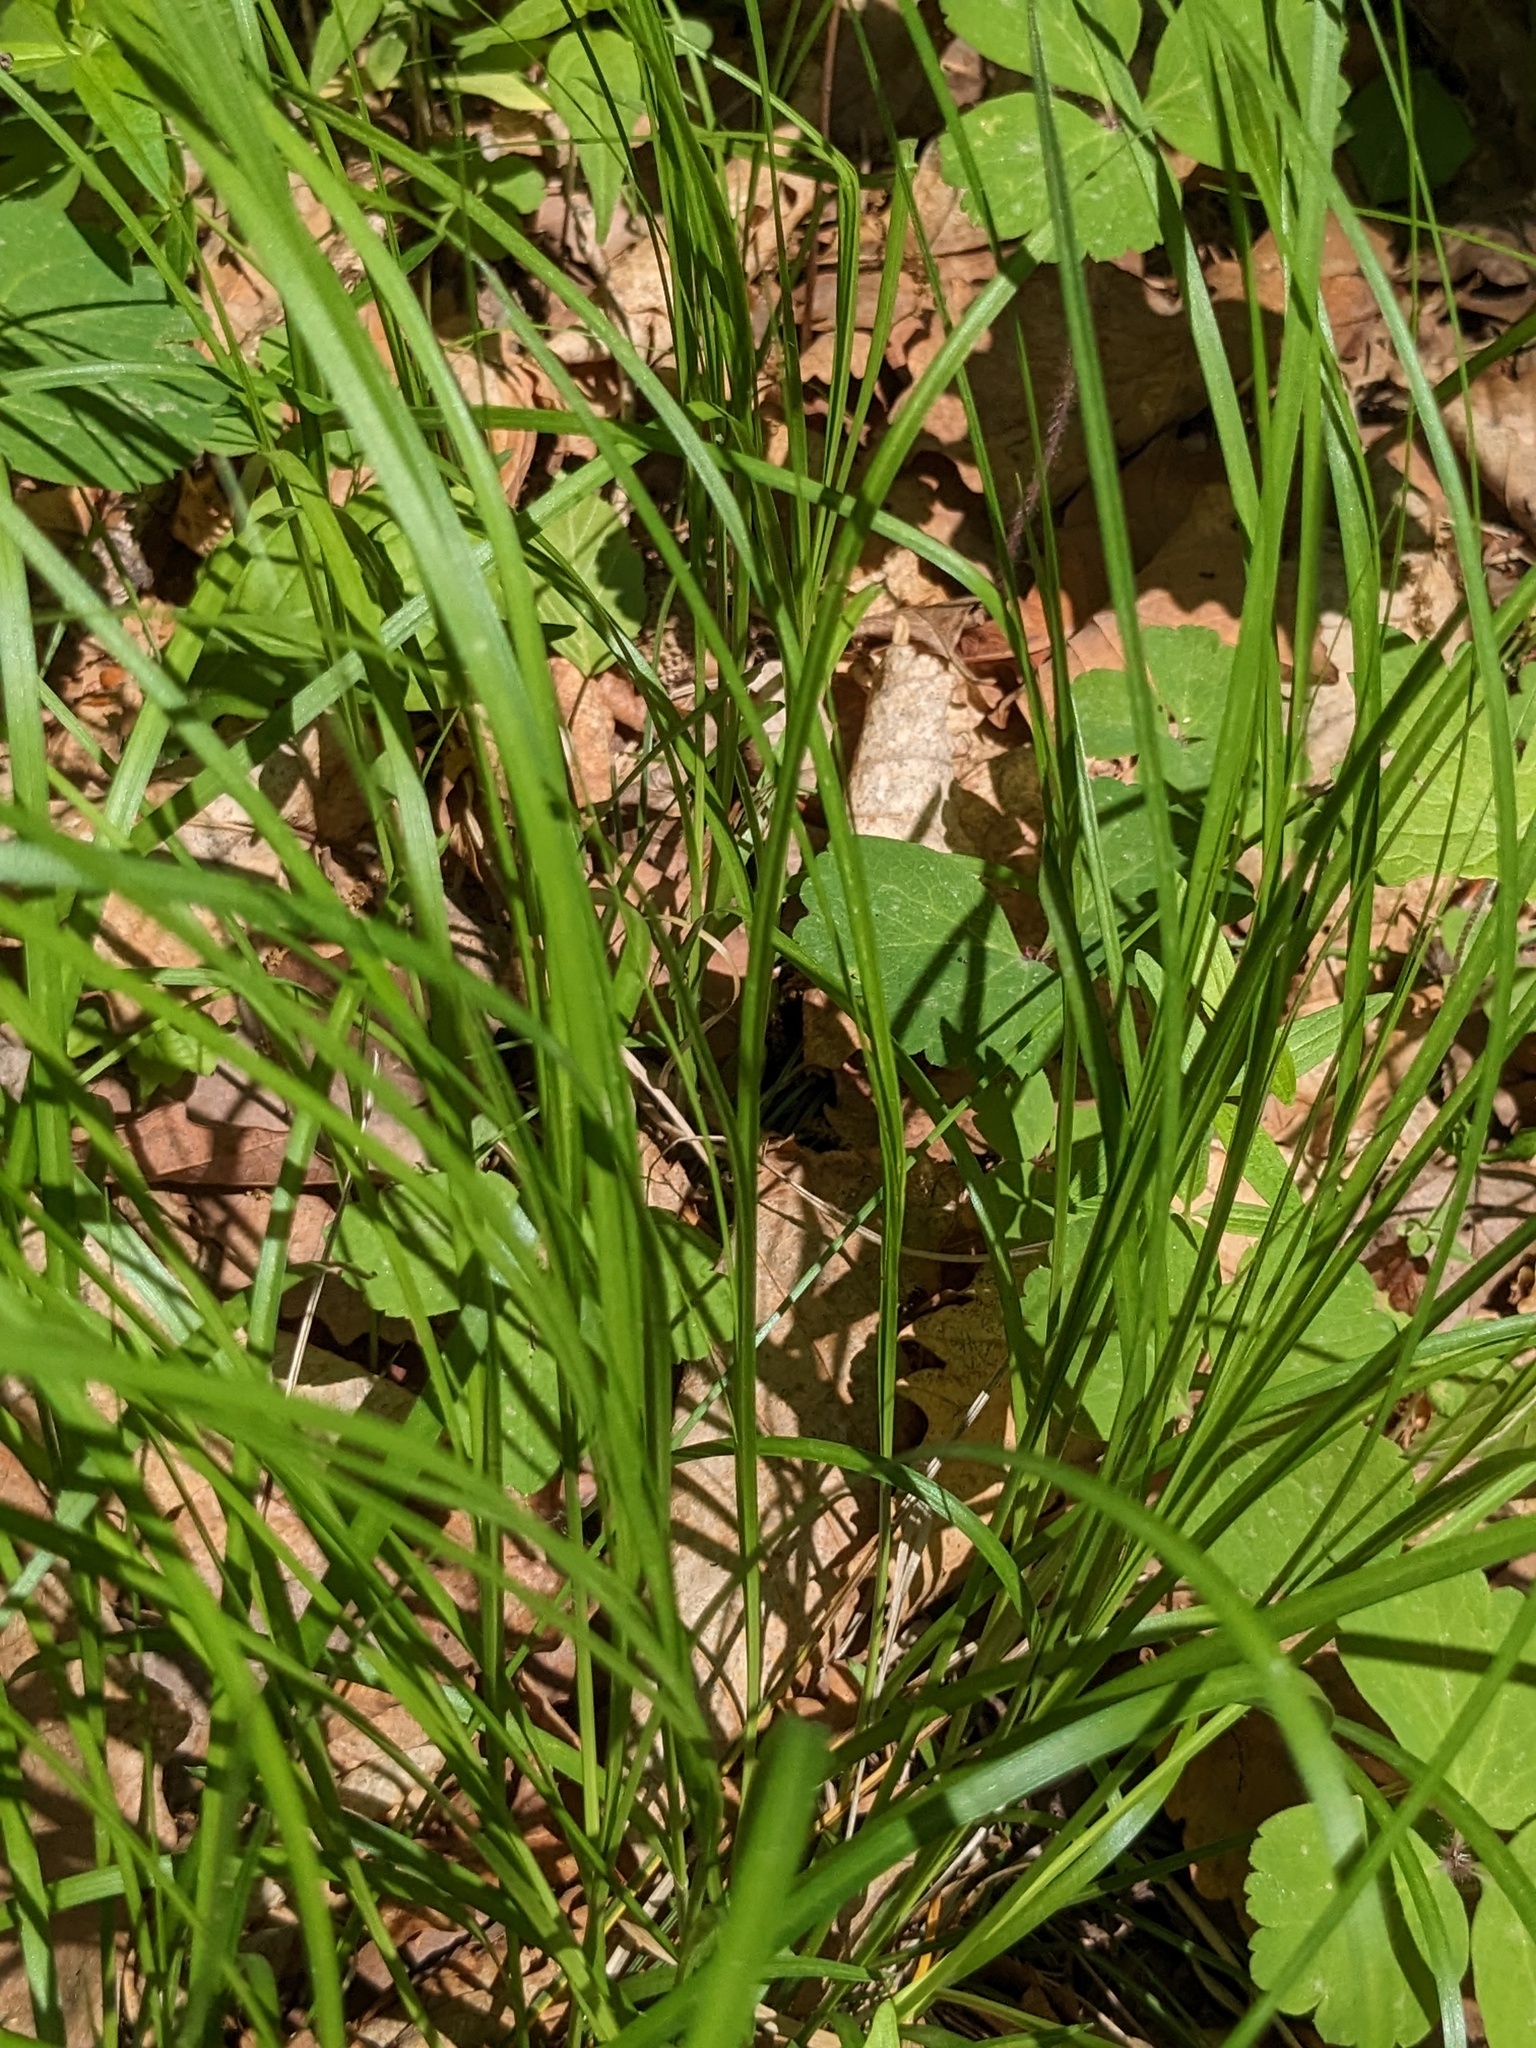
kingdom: Plantae
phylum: Tracheophyta
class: Liliopsida
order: Poales
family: Cyperaceae
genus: Carex
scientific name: Carex umbrosa
